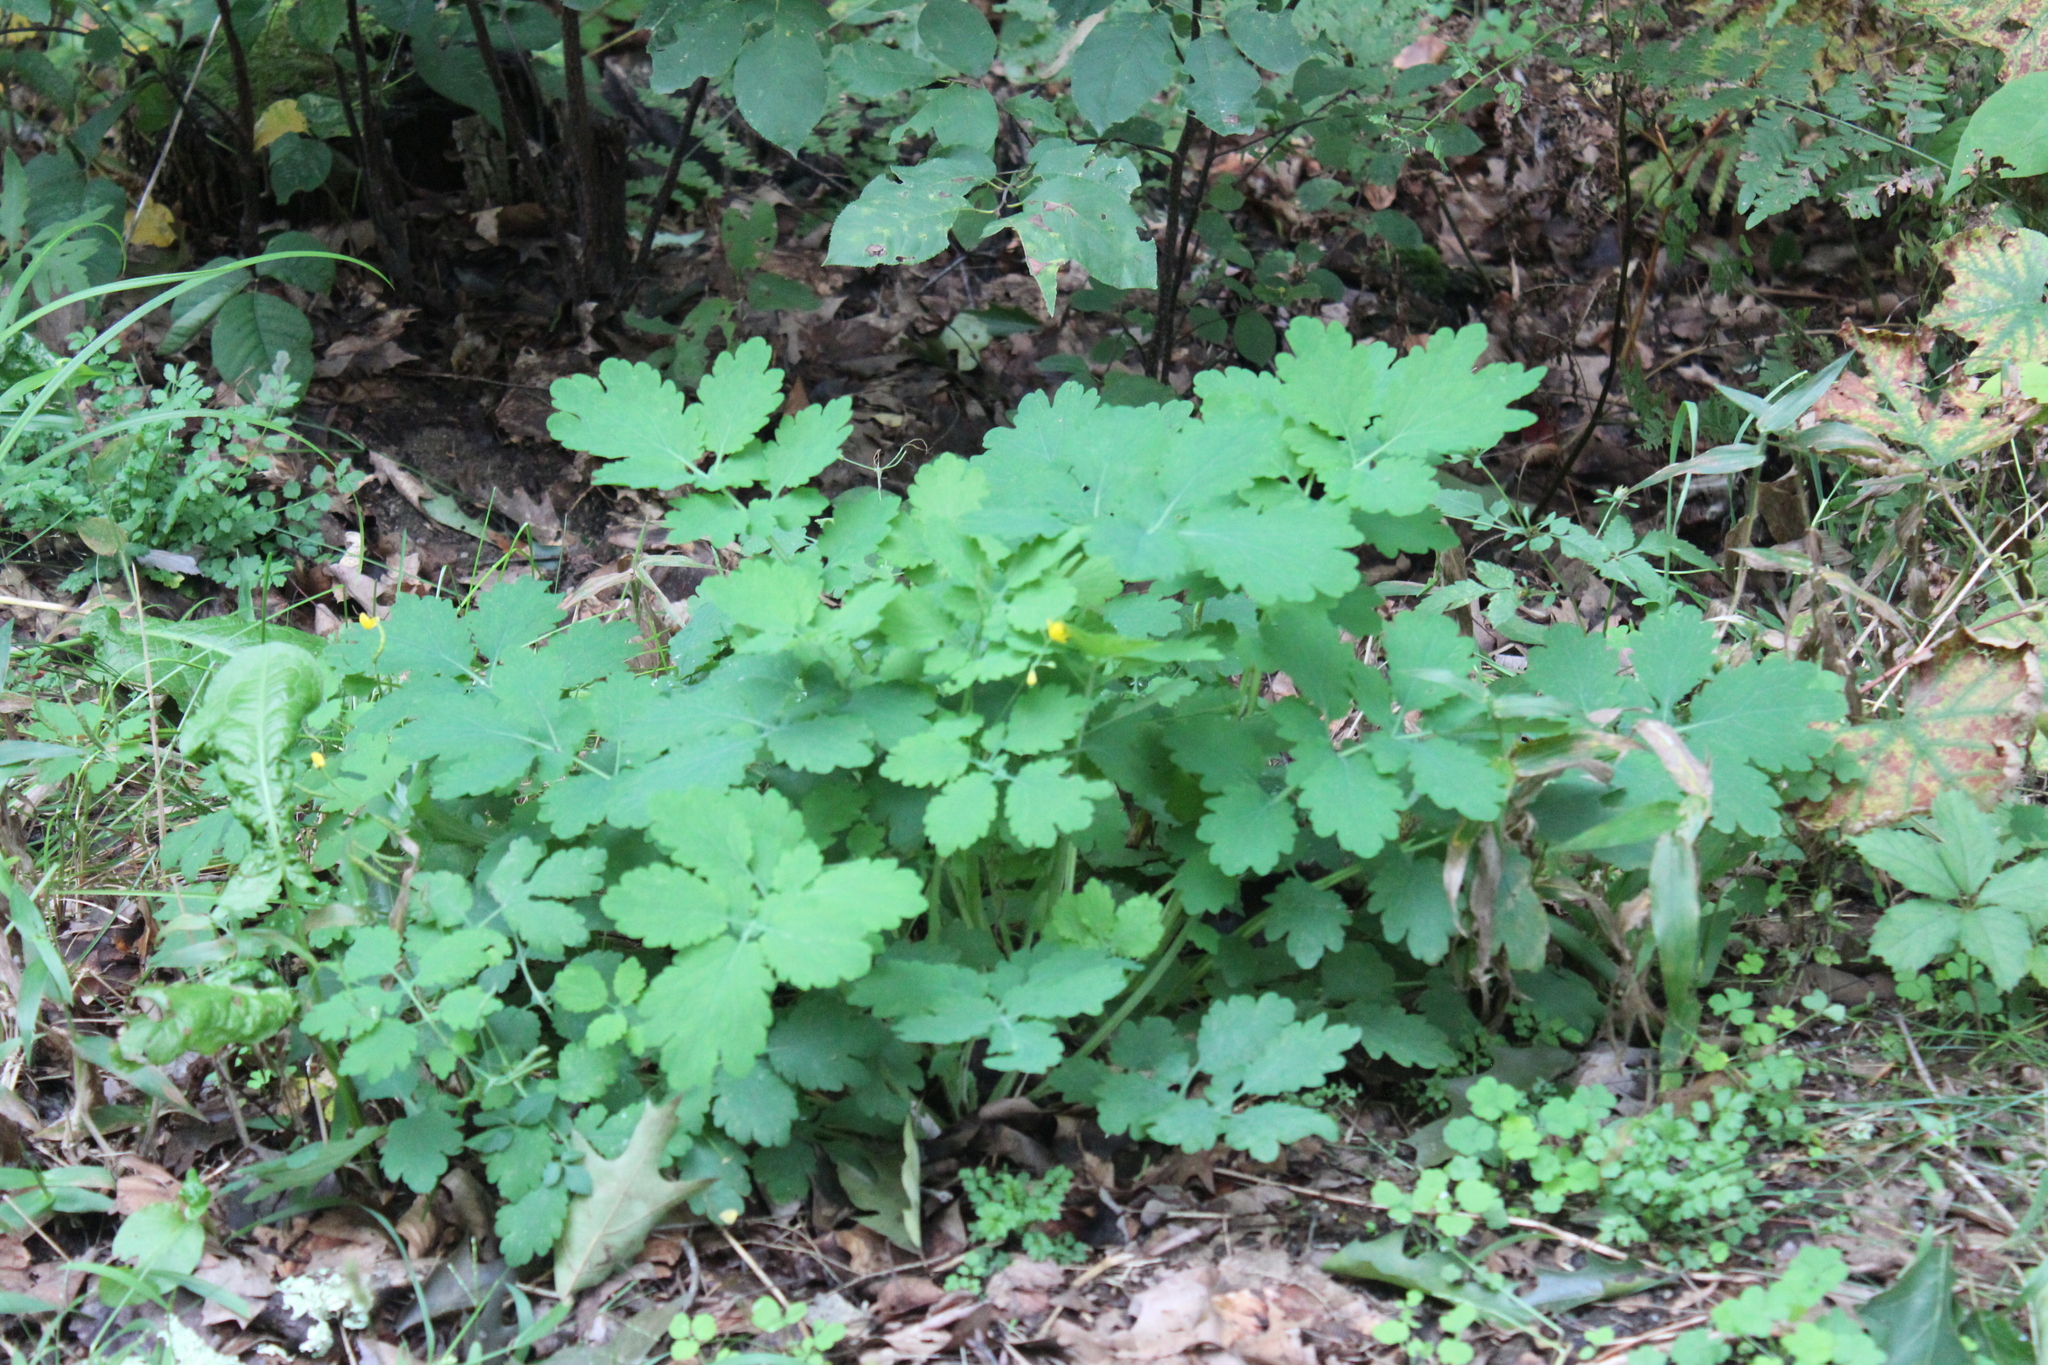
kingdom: Plantae
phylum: Tracheophyta
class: Magnoliopsida
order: Ranunculales
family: Papaveraceae
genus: Chelidonium
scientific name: Chelidonium majus
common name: Greater celandine
